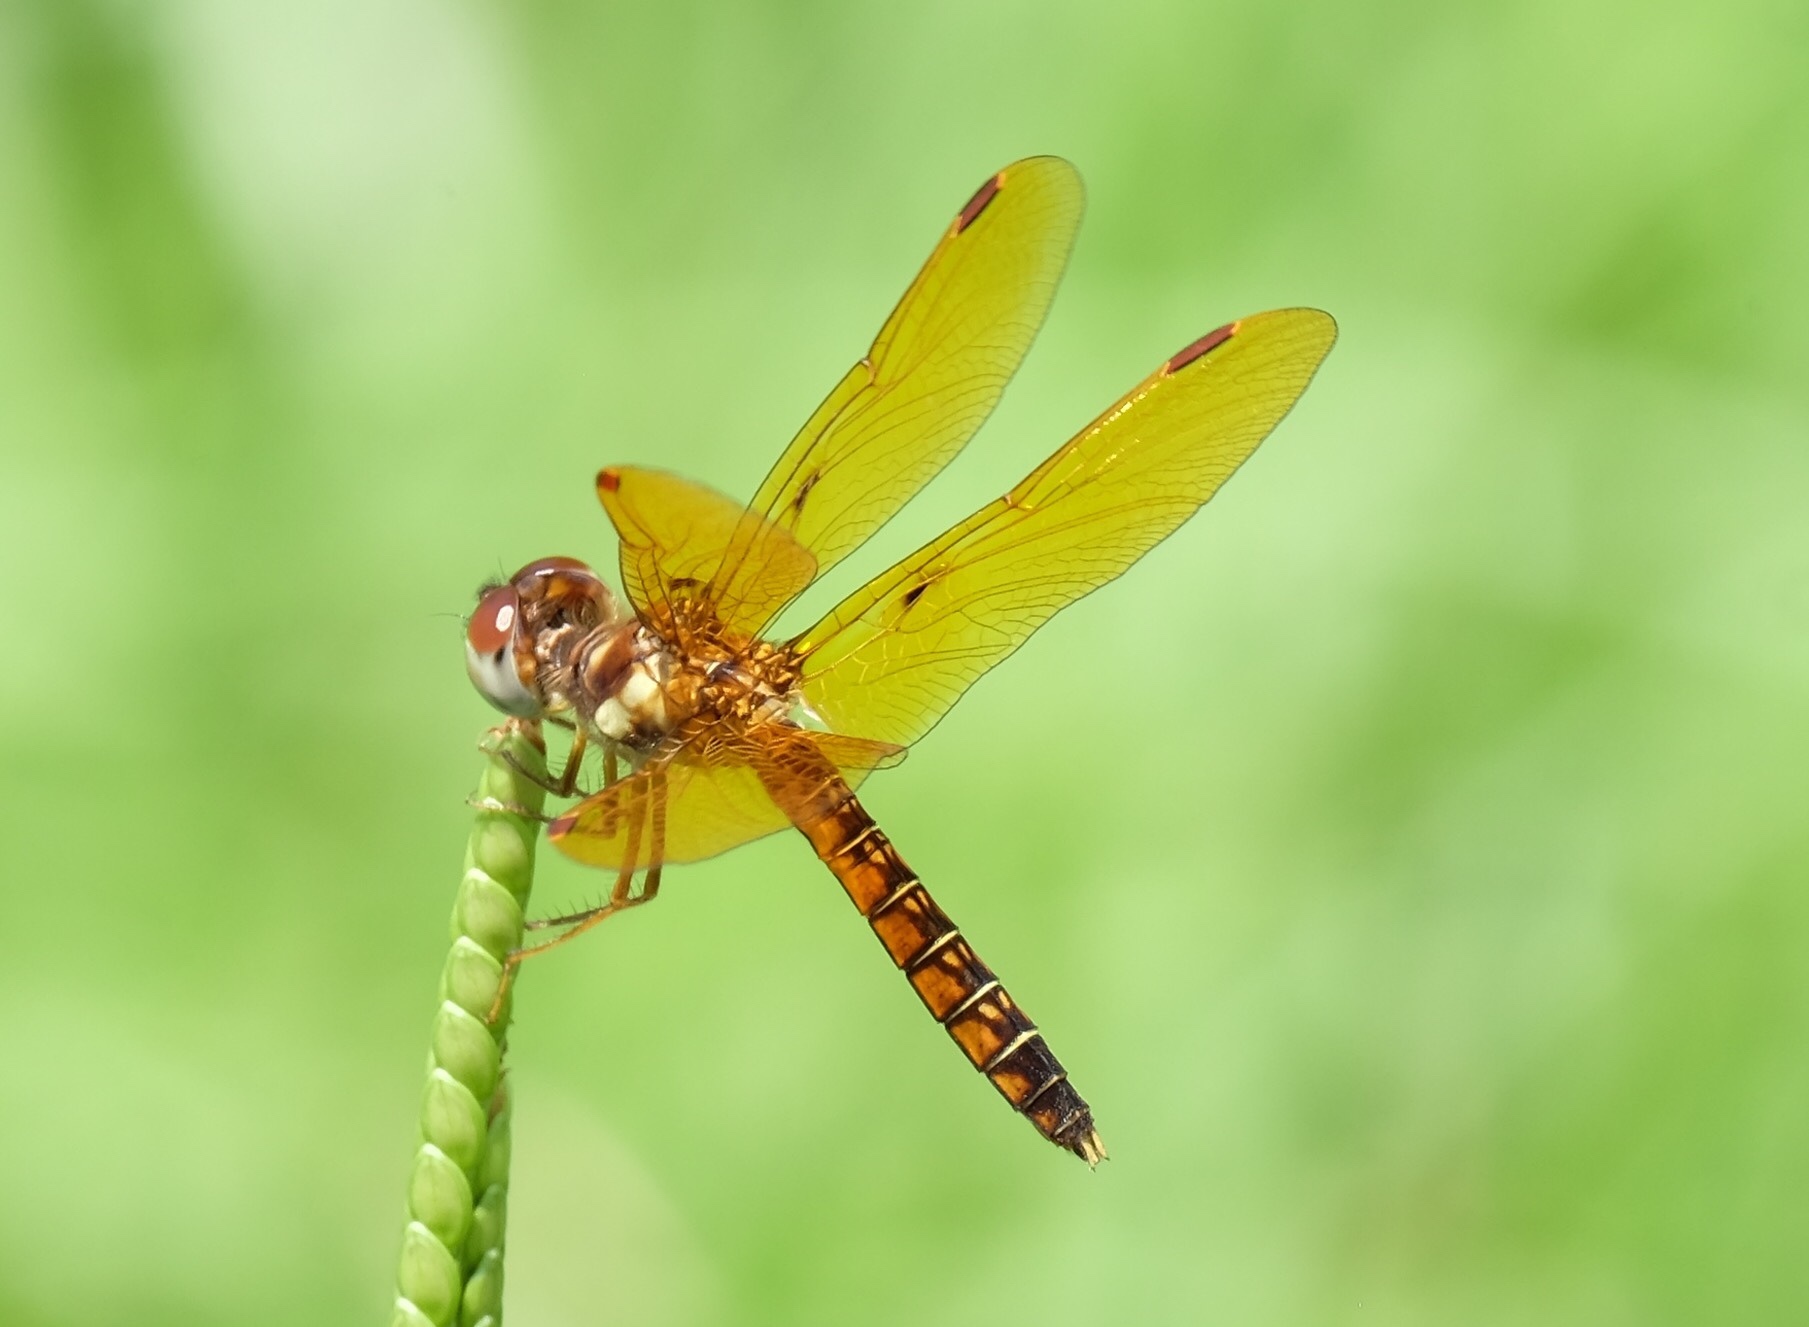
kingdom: Animalia
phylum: Arthropoda
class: Insecta
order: Odonata
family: Libellulidae
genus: Perithemis
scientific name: Perithemis tenera
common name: Eastern amberwing
